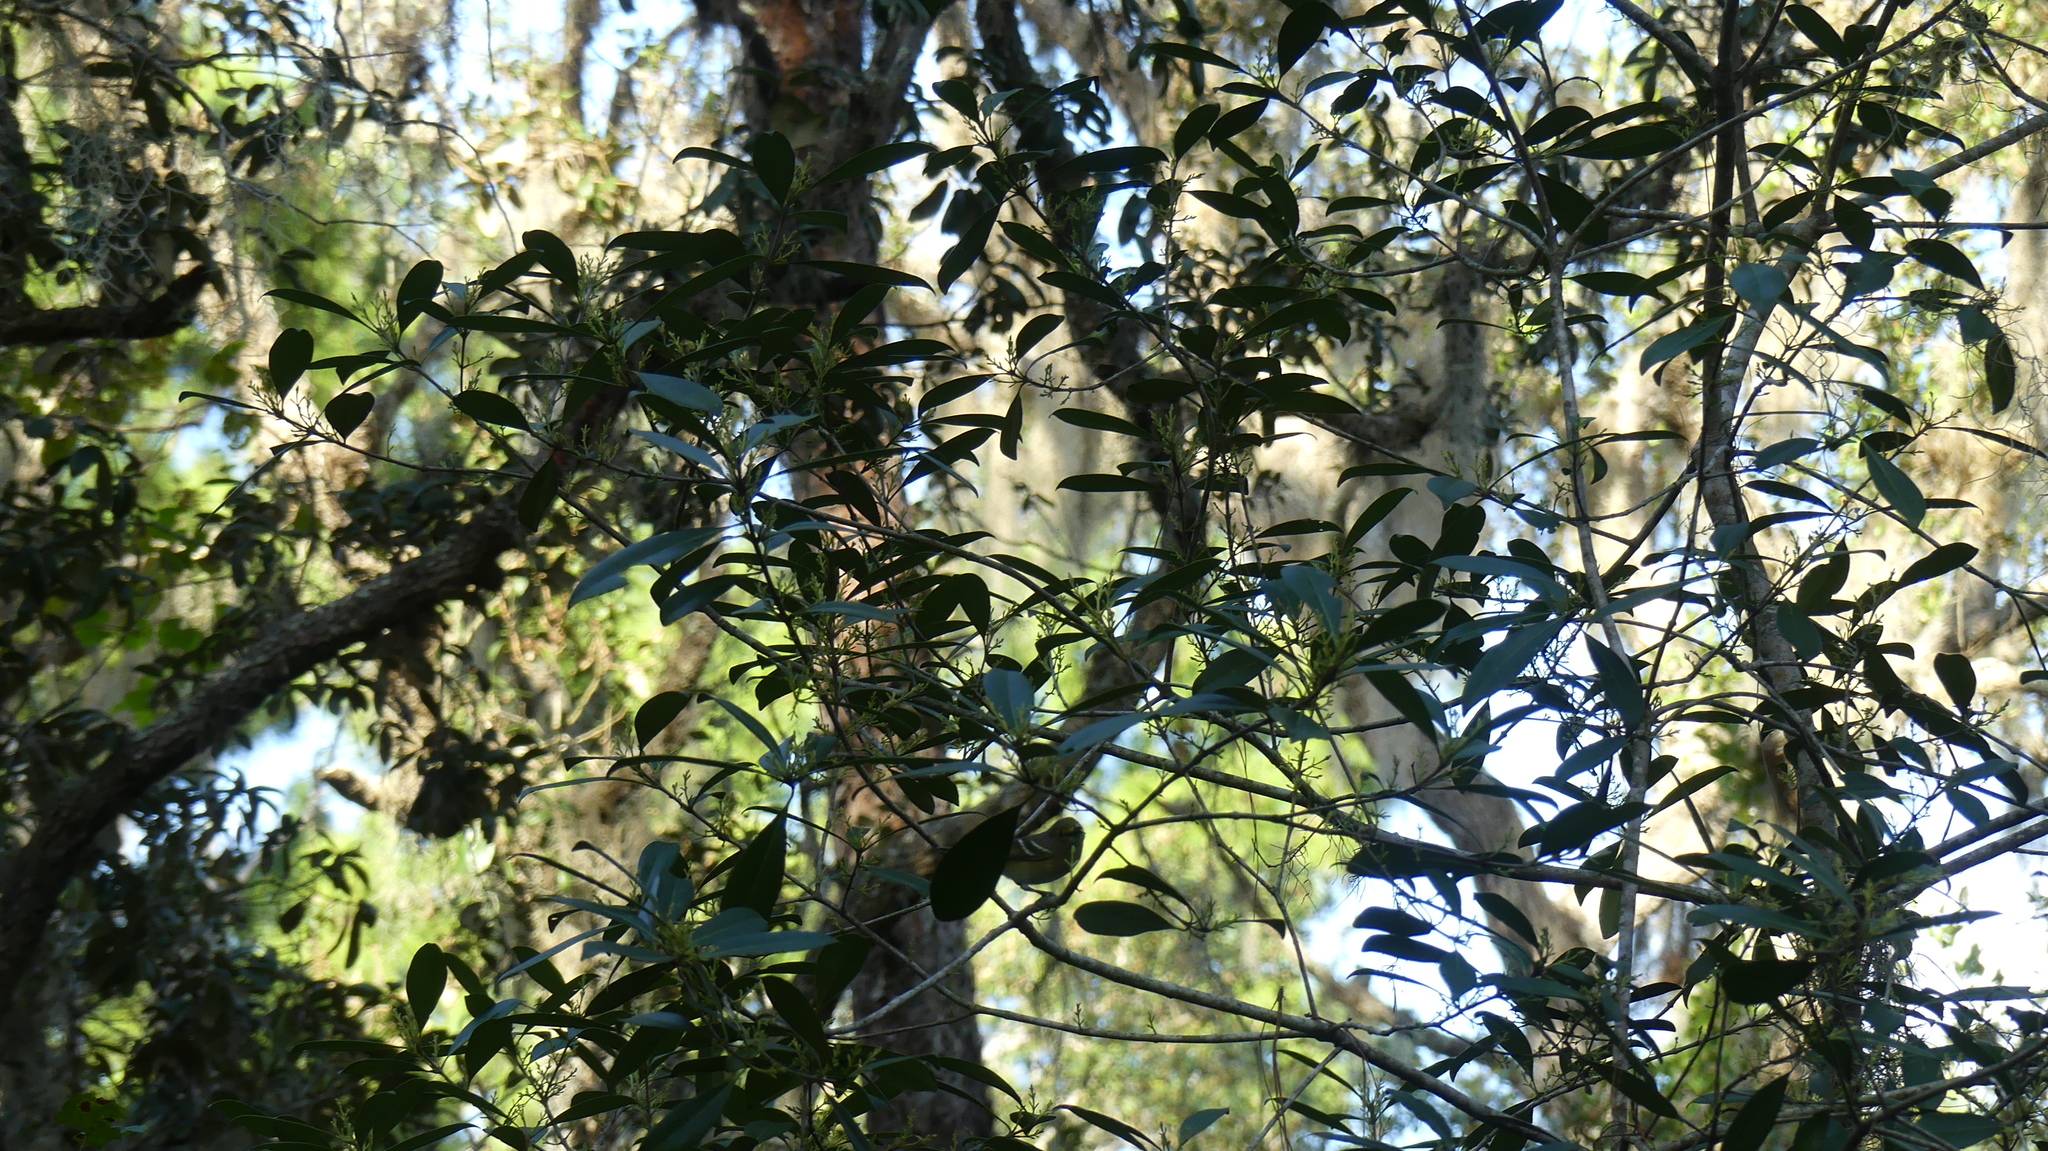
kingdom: Animalia
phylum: Chordata
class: Aves
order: Passeriformes
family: Vireonidae
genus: Vireo
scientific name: Vireo griseus
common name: White-eyed vireo
